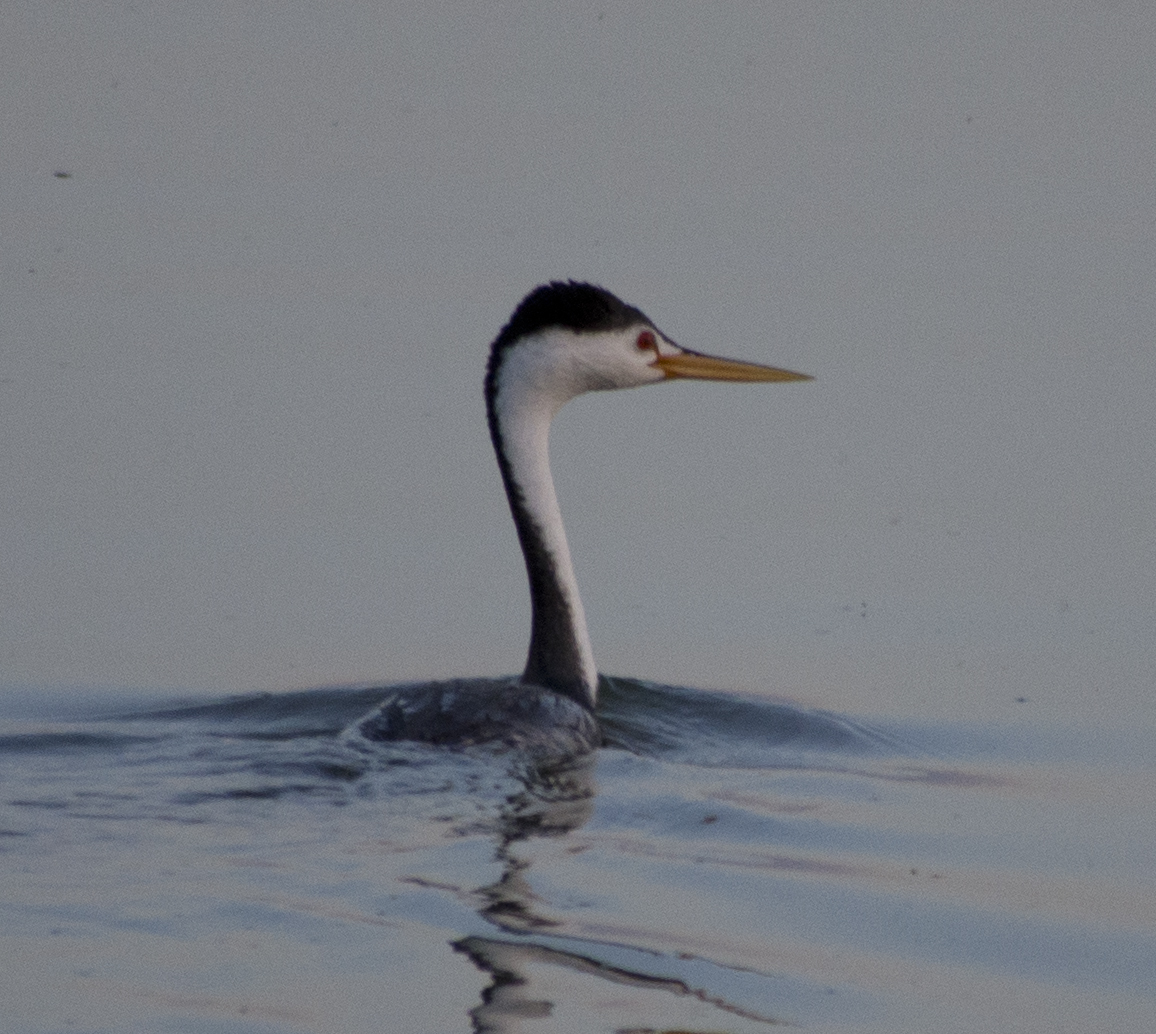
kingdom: Animalia
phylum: Chordata
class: Aves
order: Podicipediformes
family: Podicipedidae
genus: Aechmophorus
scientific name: Aechmophorus clarkii
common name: Clark's grebe
